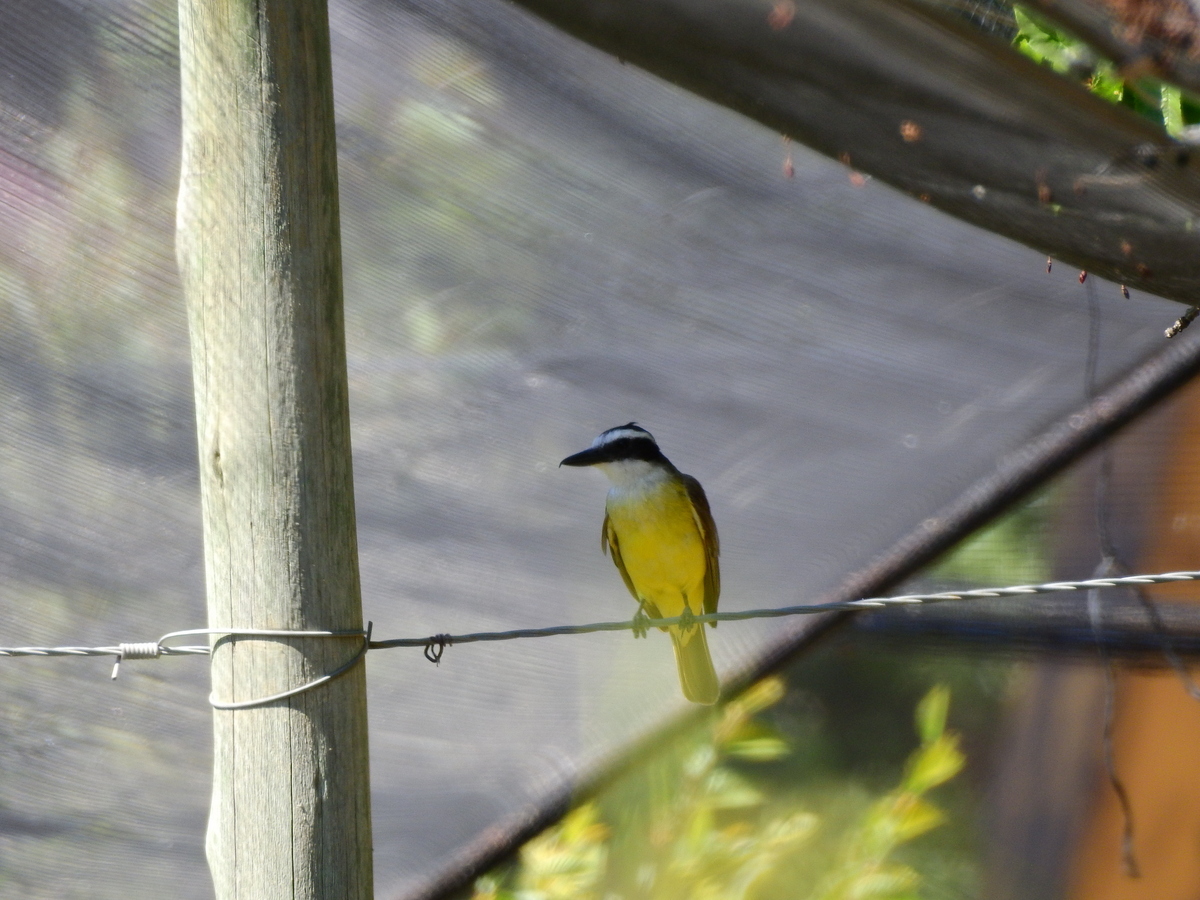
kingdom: Animalia
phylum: Chordata
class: Aves
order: Passeriformes
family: Tyrannidae
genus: Pitangus
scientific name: Pitangus sulphuratus
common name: Great kiskadee
